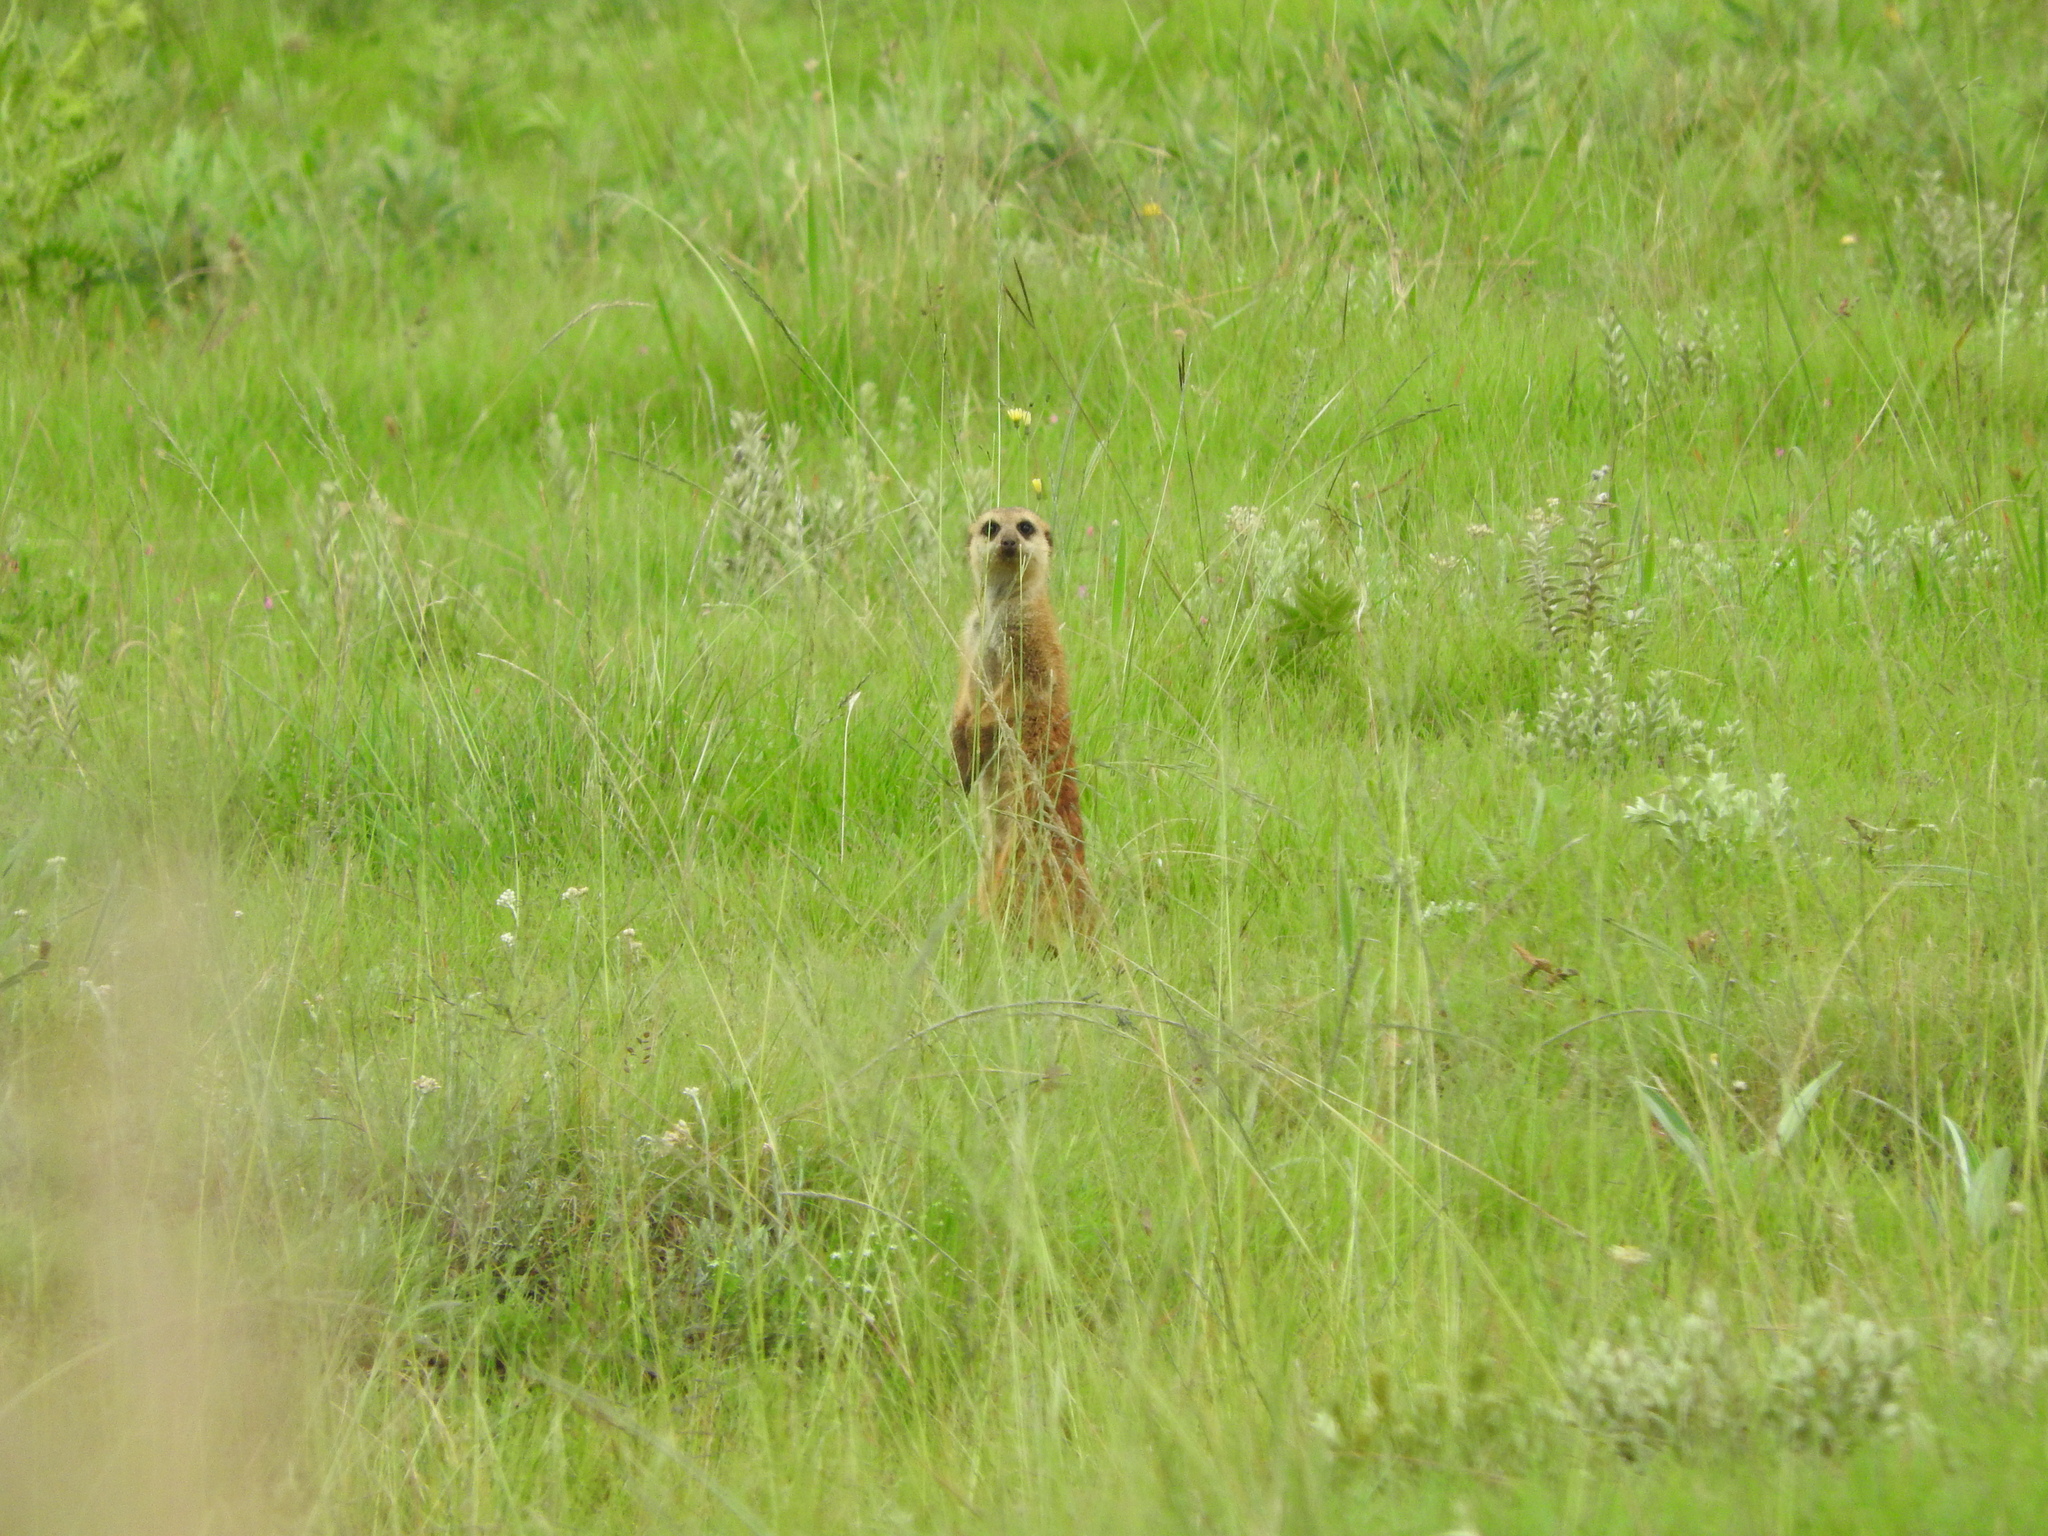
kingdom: Animalia
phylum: Chordata
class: Mammalia
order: Carnivora
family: Herpestidae
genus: Suricata
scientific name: Suricata suricatta
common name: Meerkat
